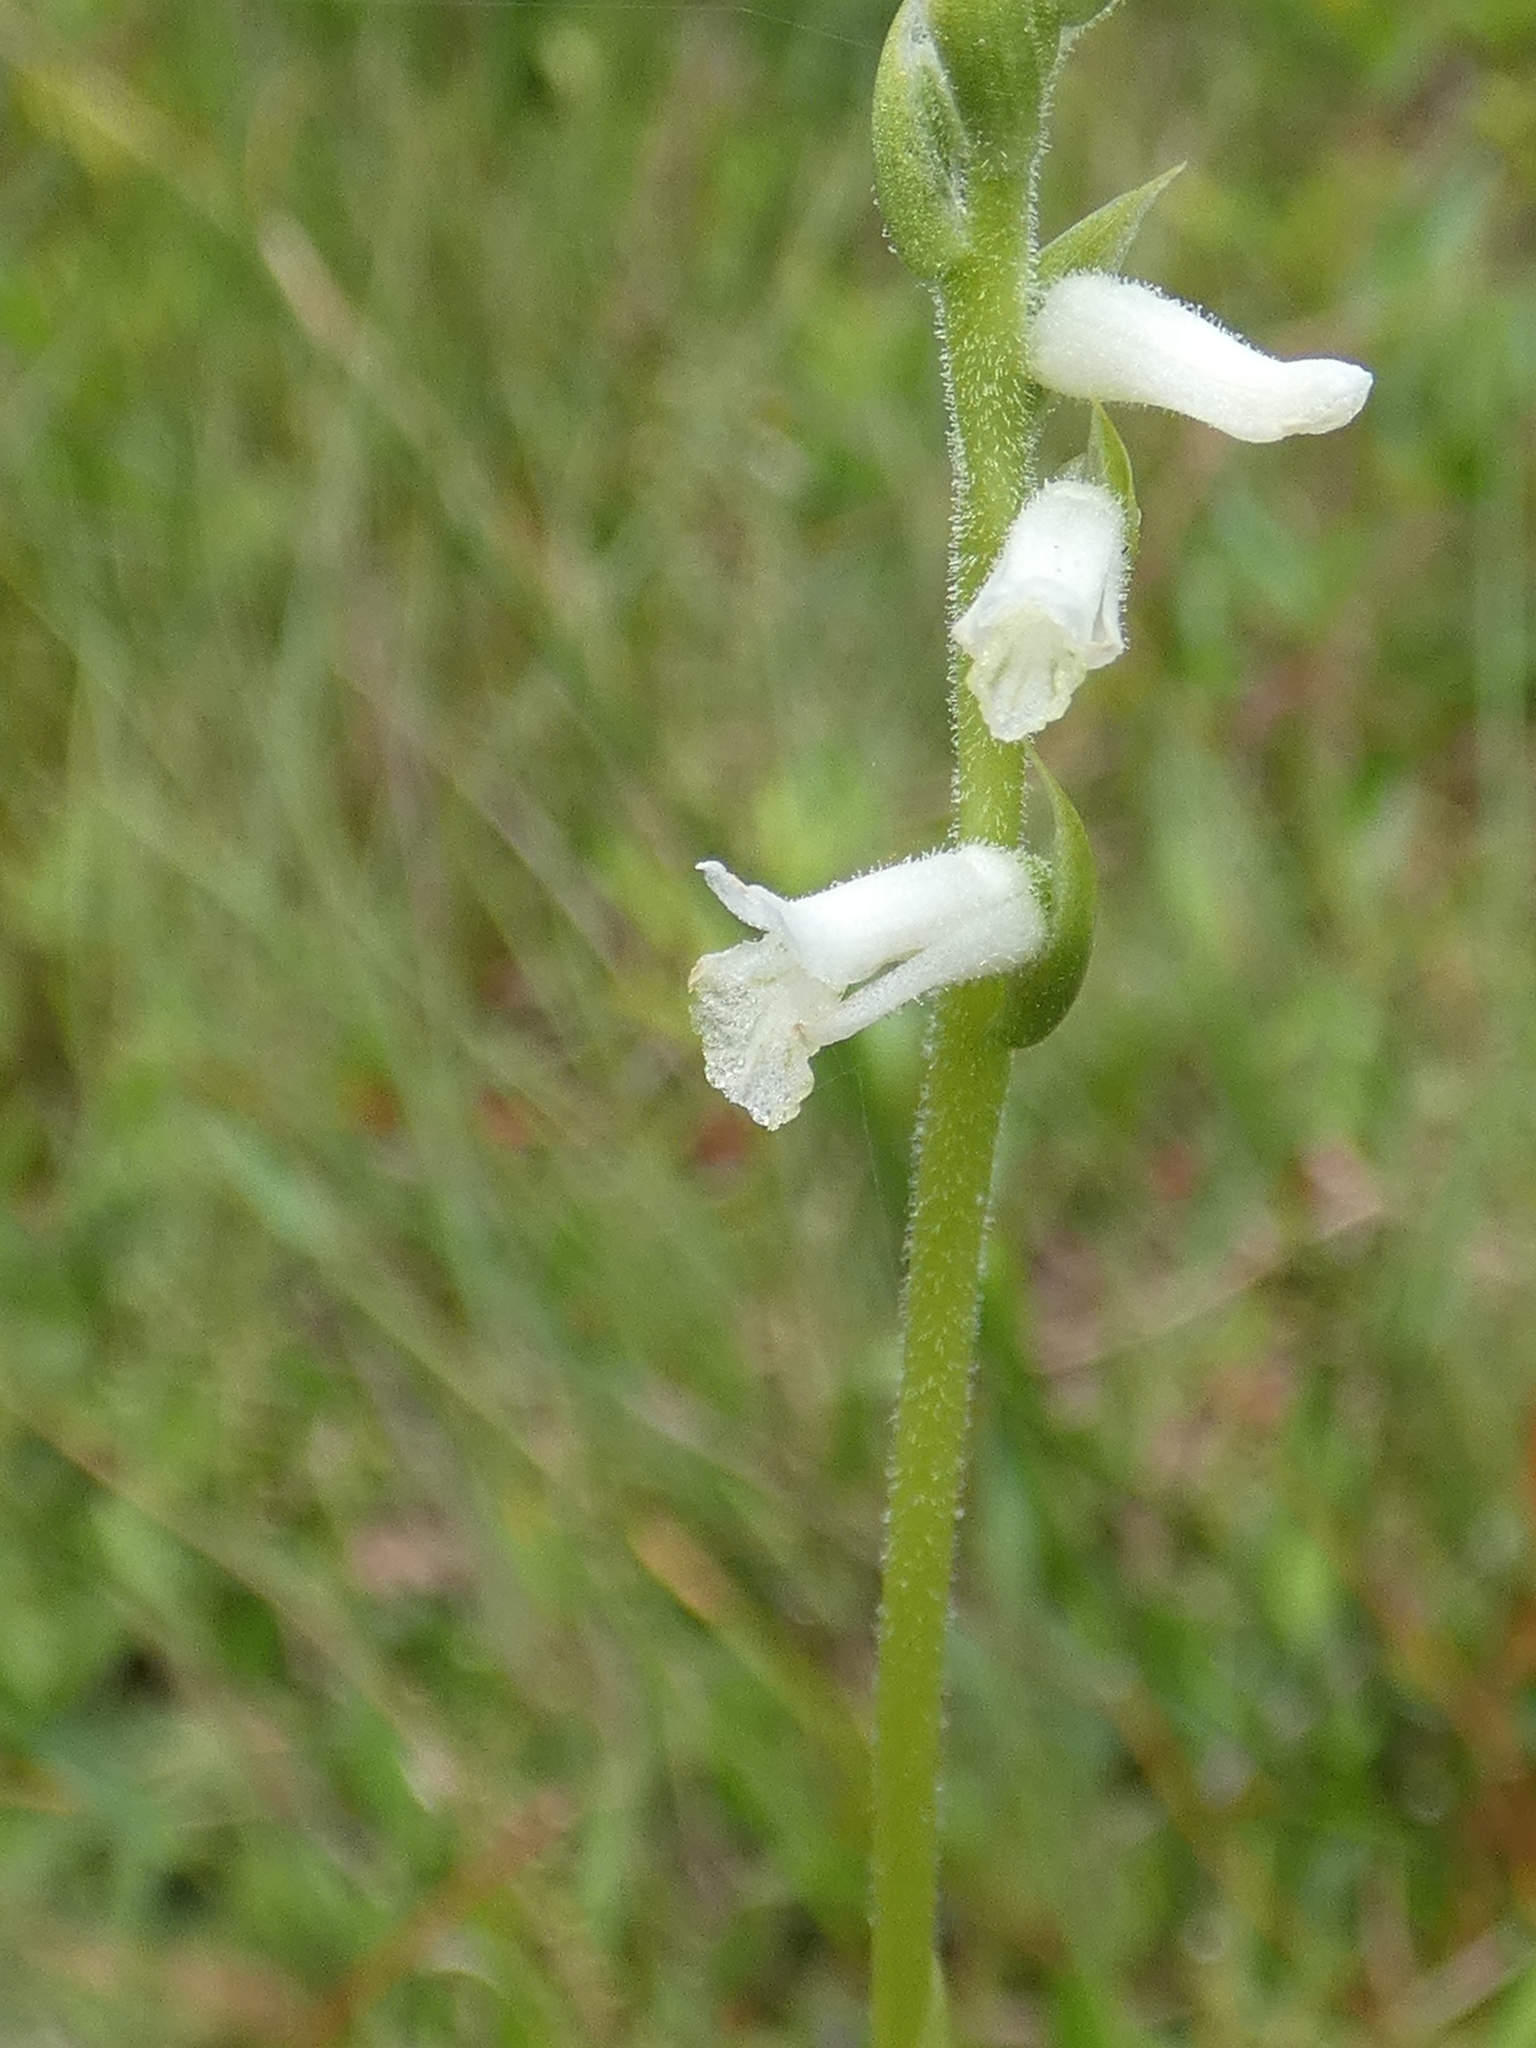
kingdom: Plantae
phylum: Tracheophyta
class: Liliopsida
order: Asparagales
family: Orchidaceae
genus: Spiranthes
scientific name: Spiranthes praecox
